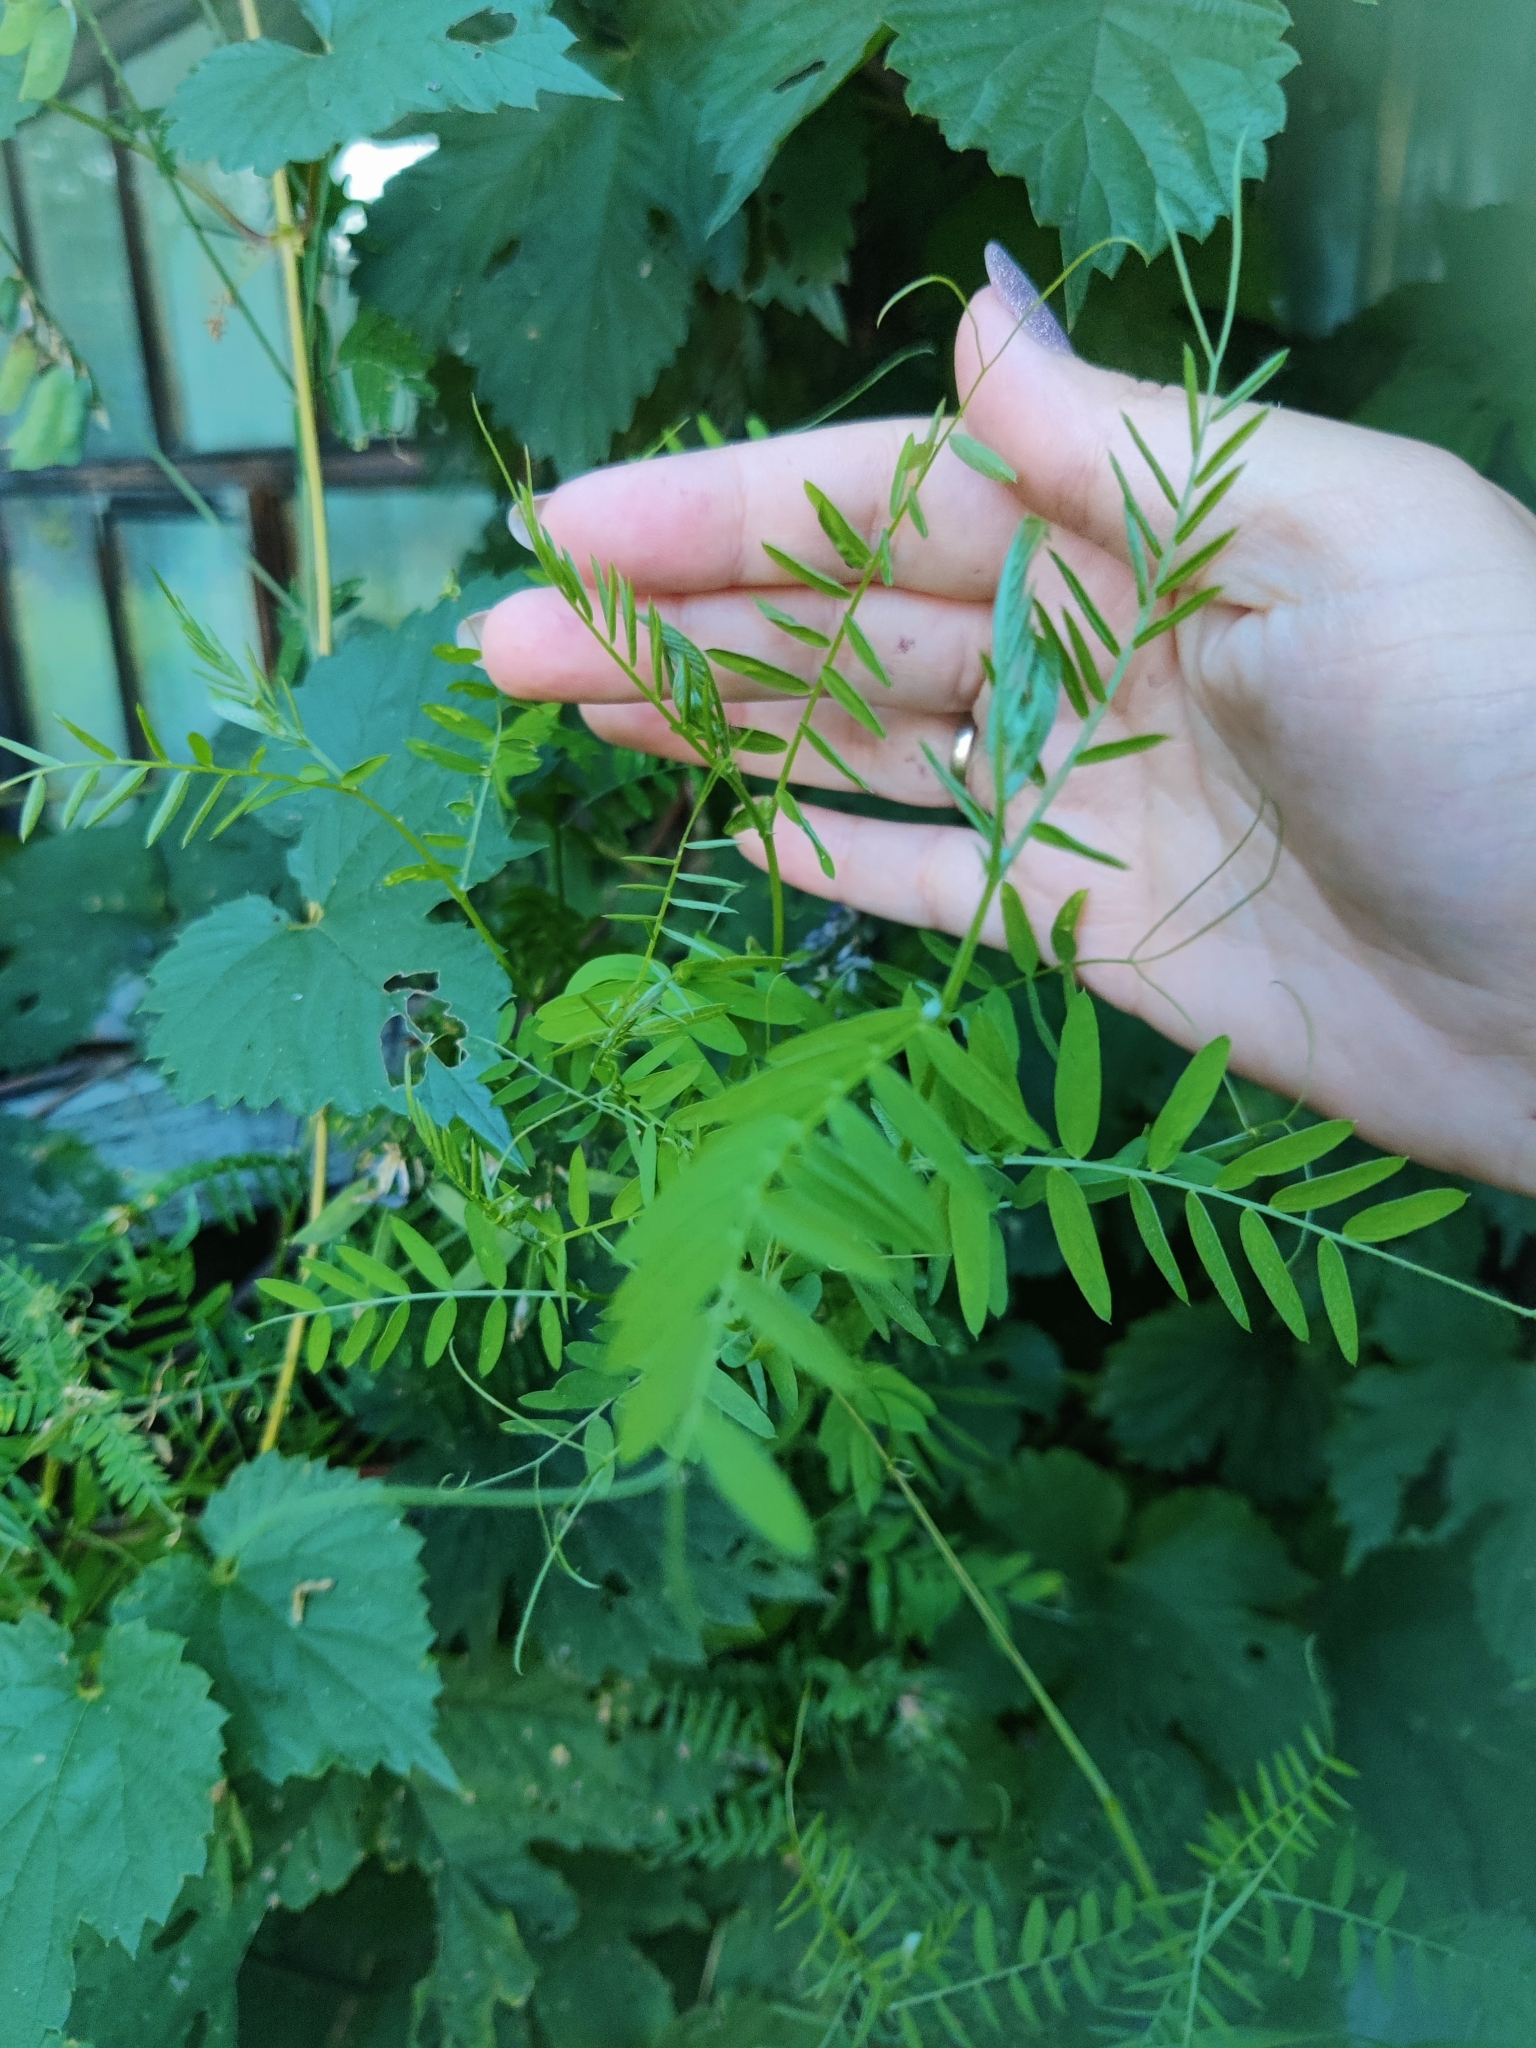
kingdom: Plantae
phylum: Tracheophyta
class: Magnoliopsida
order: Fabales
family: Fabaceae
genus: Vicia
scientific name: Vicia cracca
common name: Bird vetch
